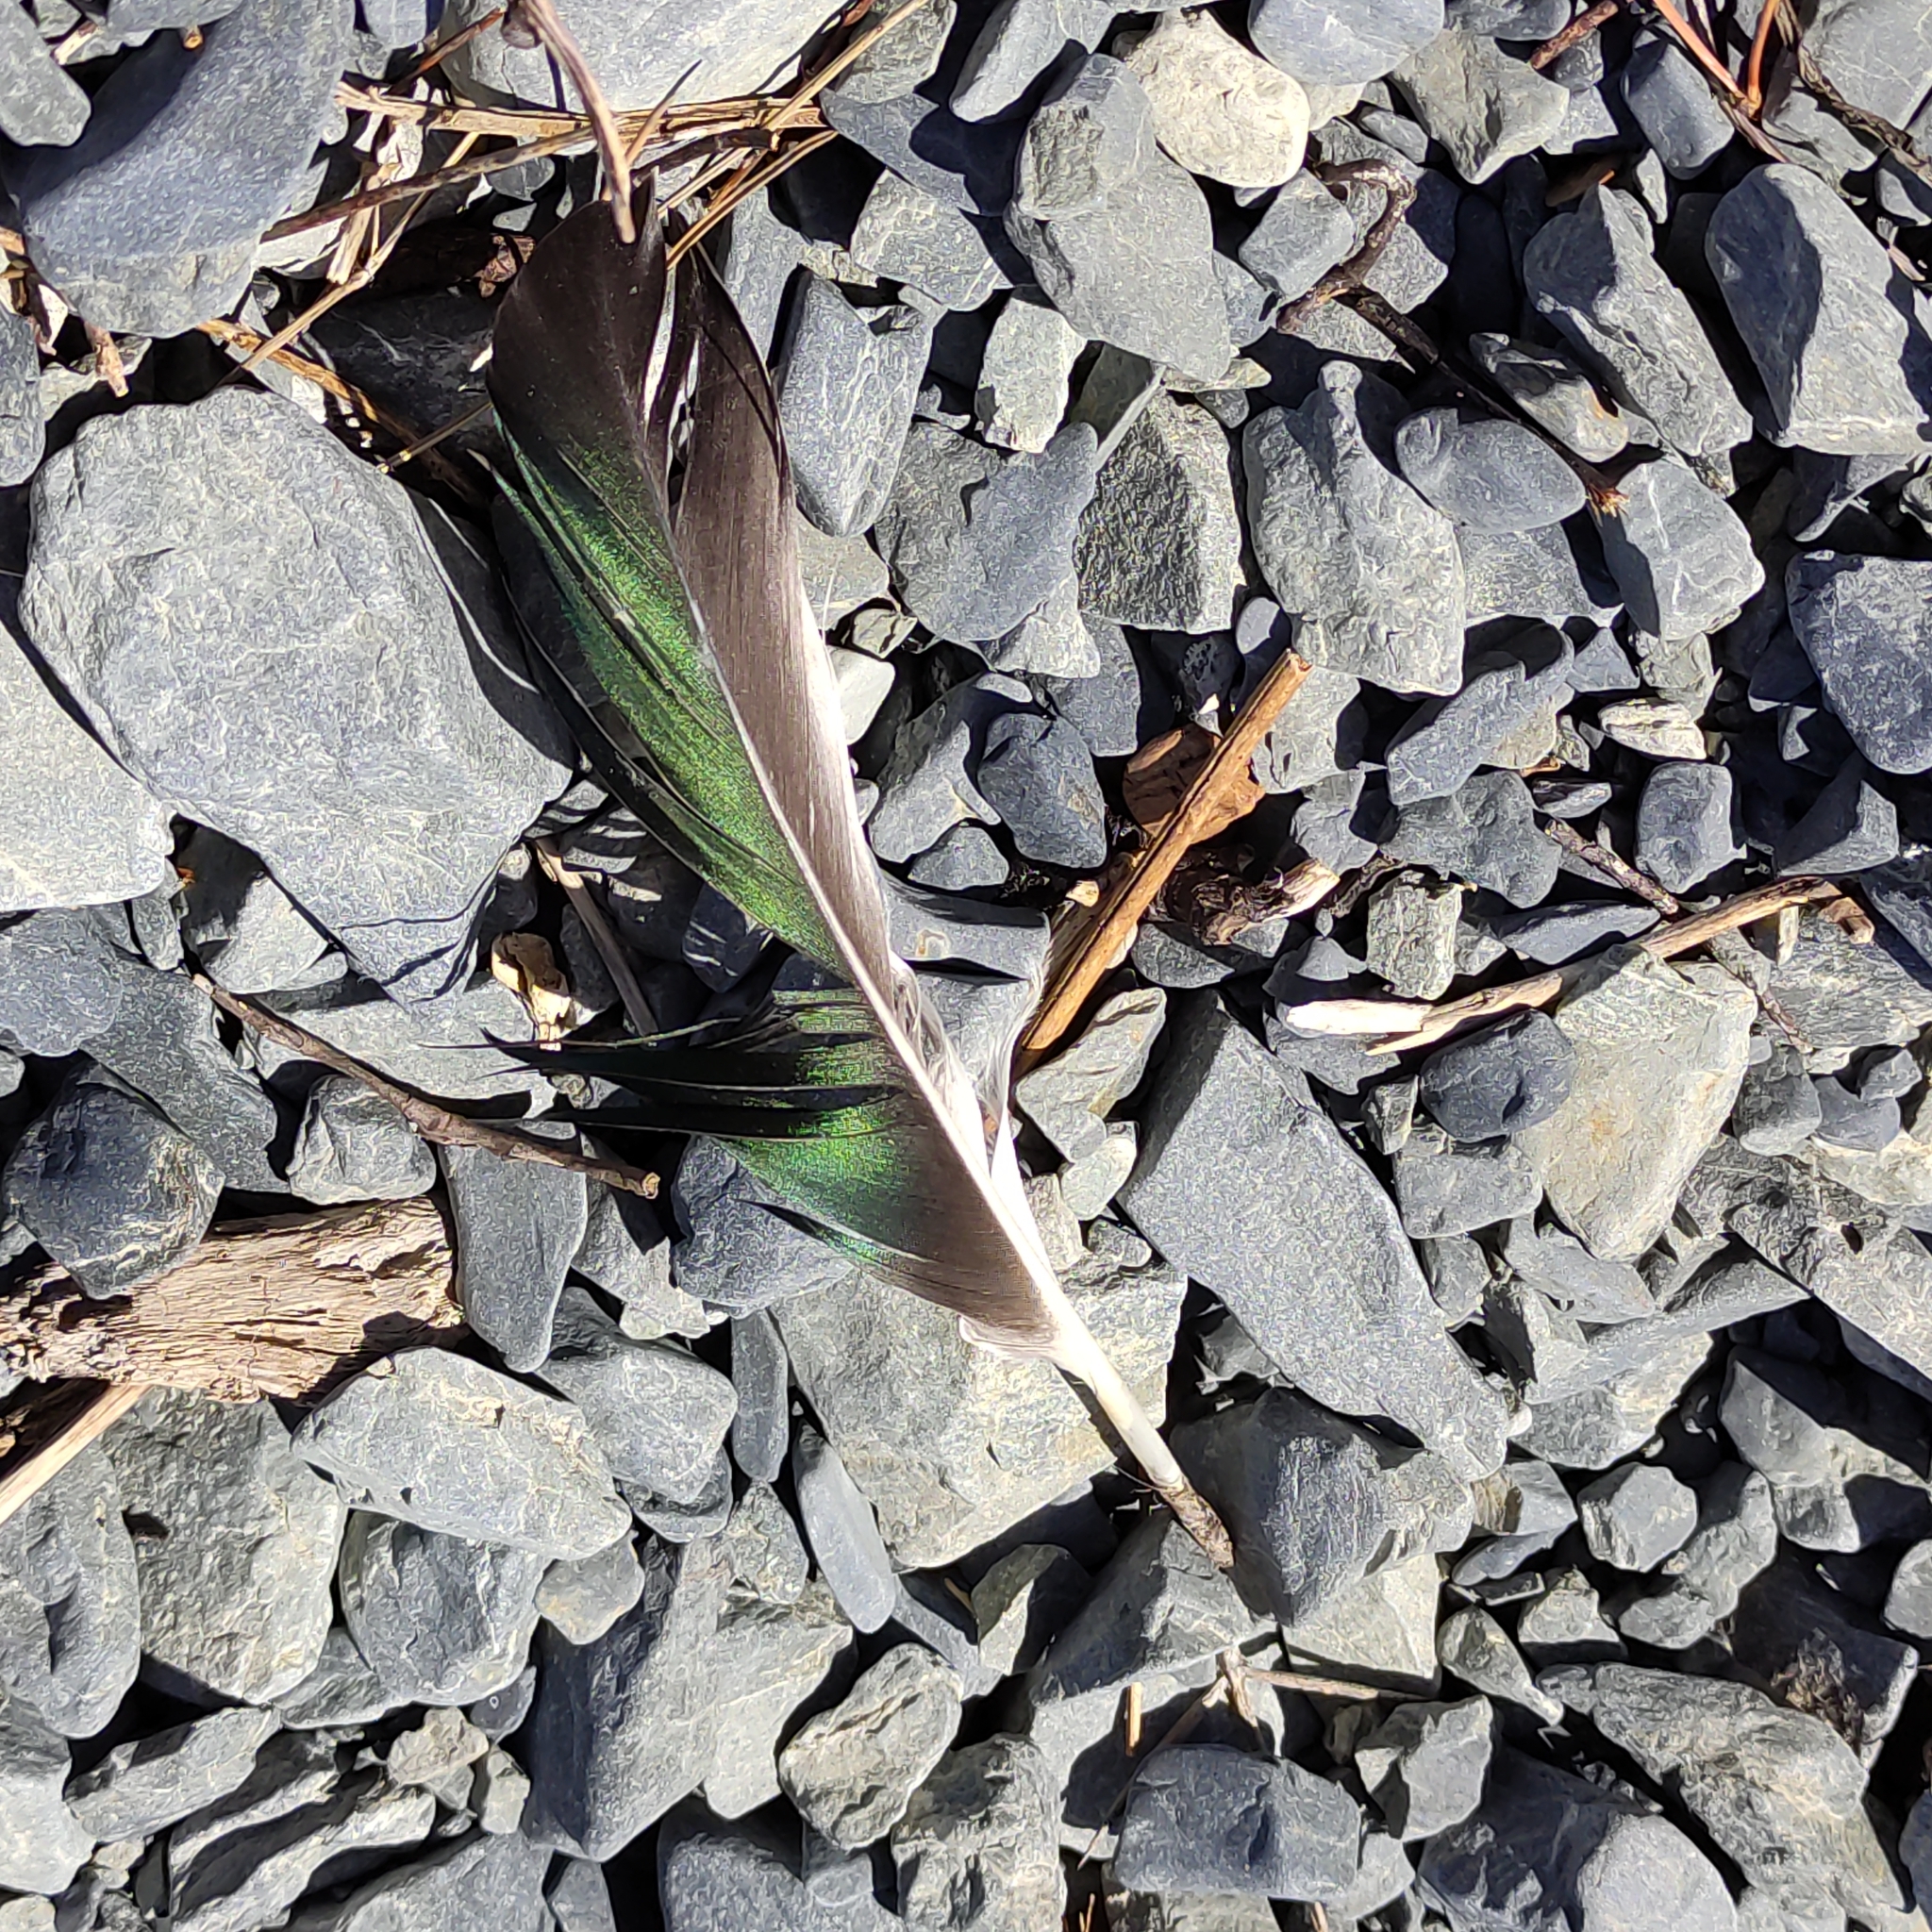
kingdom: Animalia
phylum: Chordata
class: Aves
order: Anseriformes
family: Anatidae
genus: Tadorna
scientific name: Tadorna variegata
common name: Paradise shelduck
